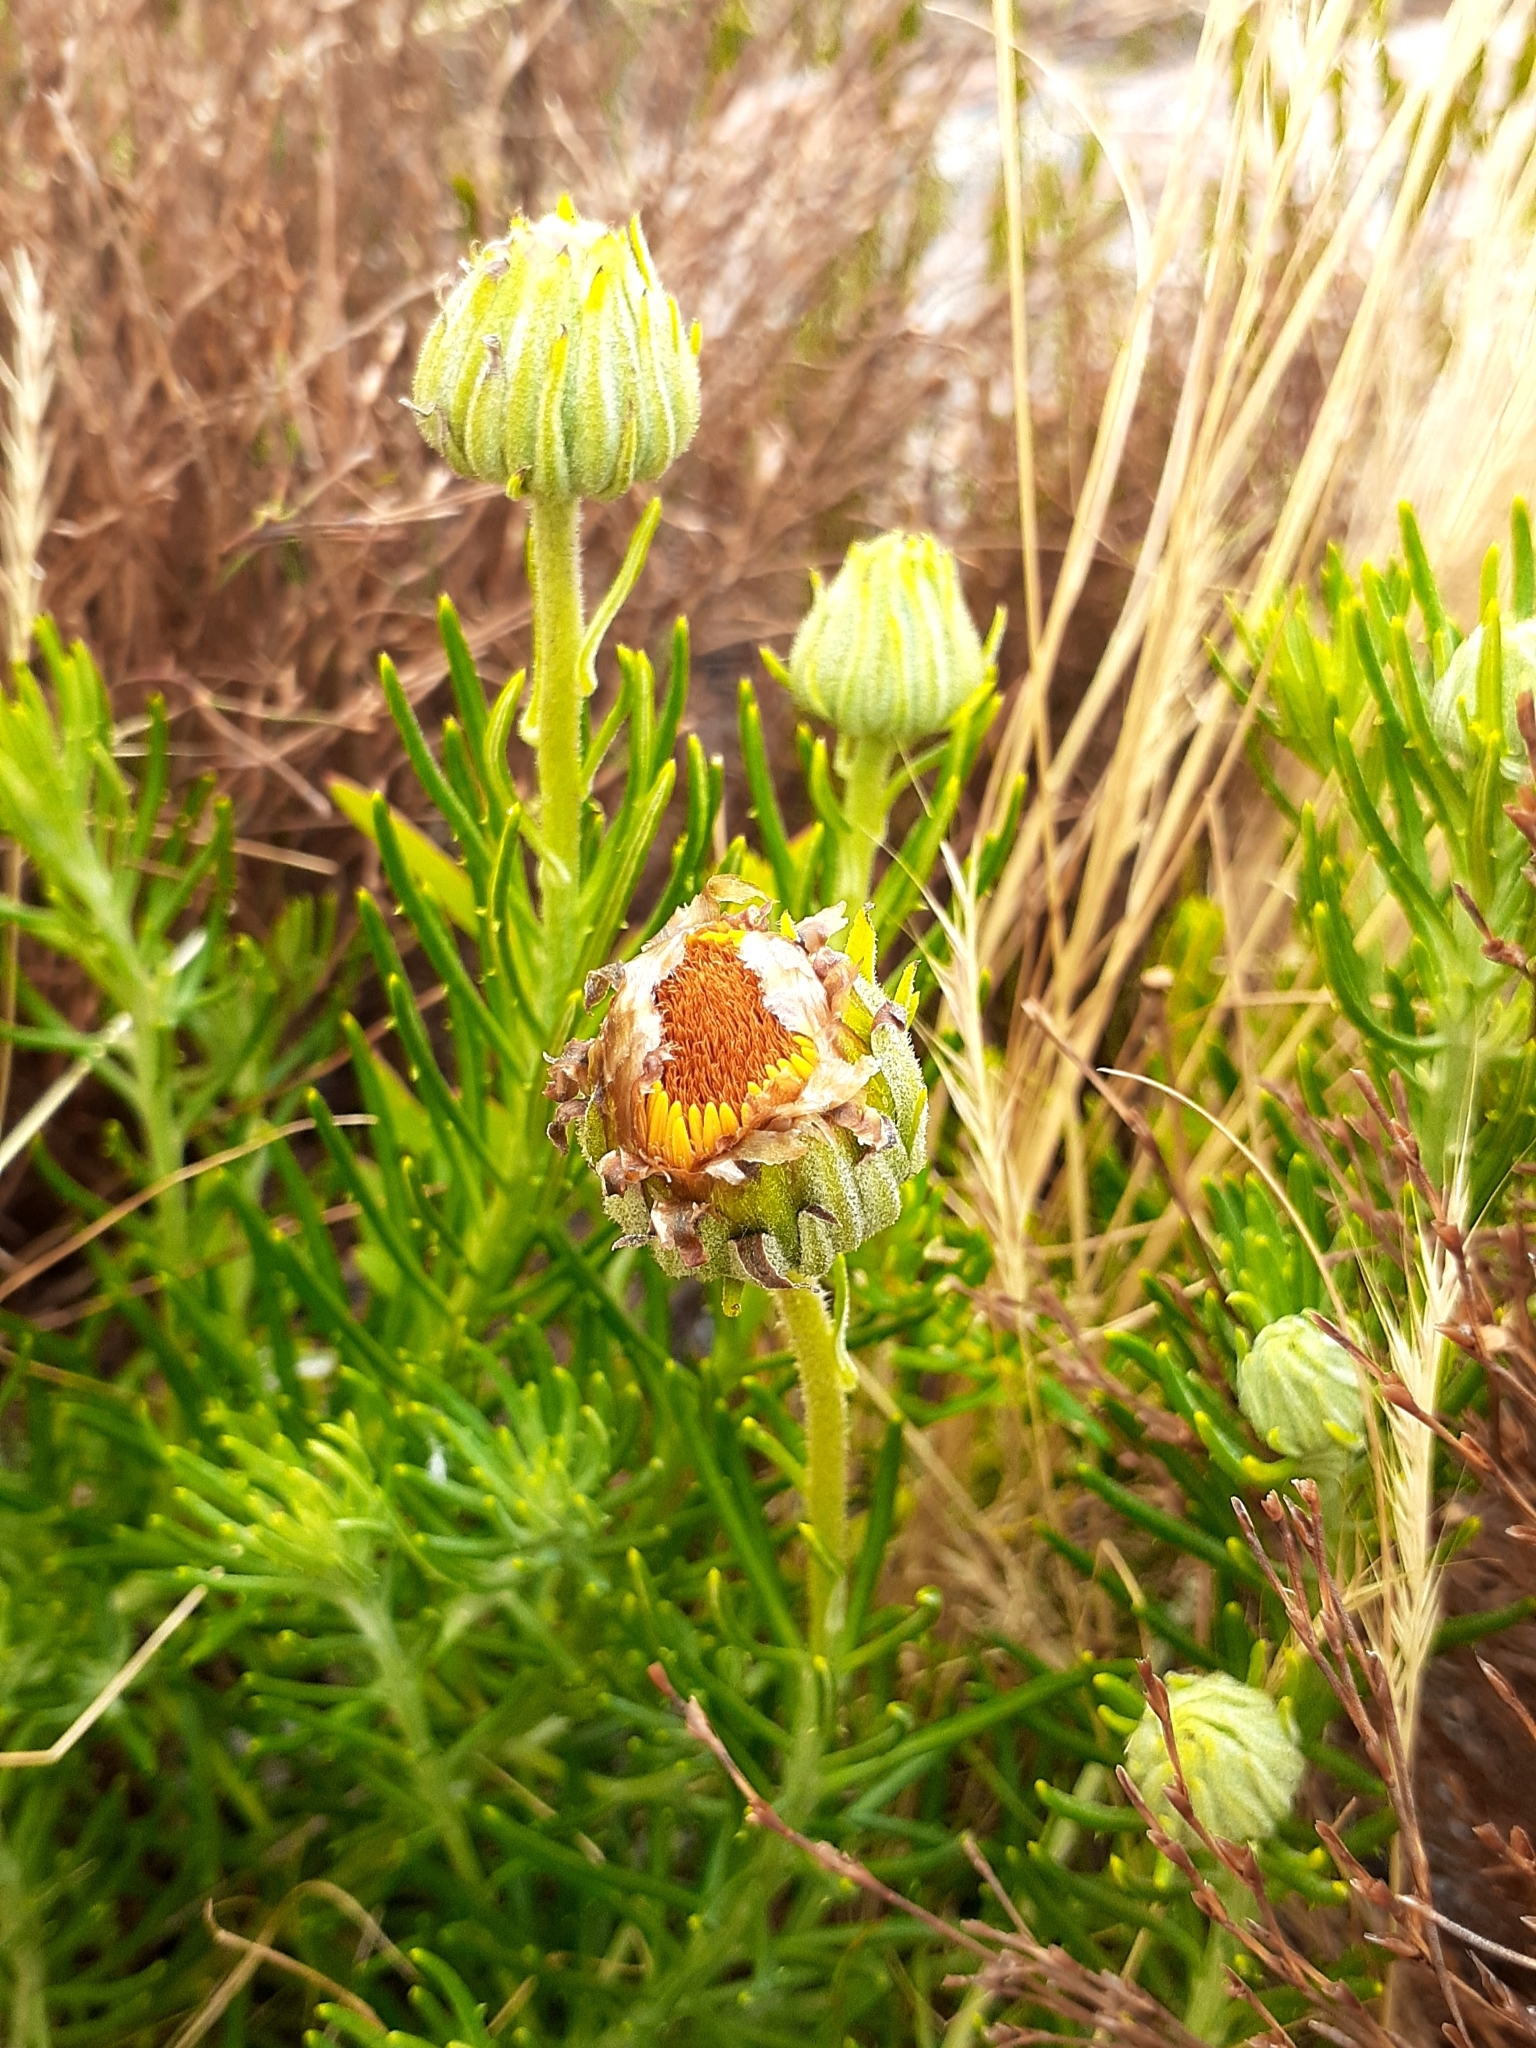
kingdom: Plantae
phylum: Tracheophyta
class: Magnoliopsida
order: Asterales
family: Asteraceae
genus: Heterolepis
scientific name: Heterolepis aliena
